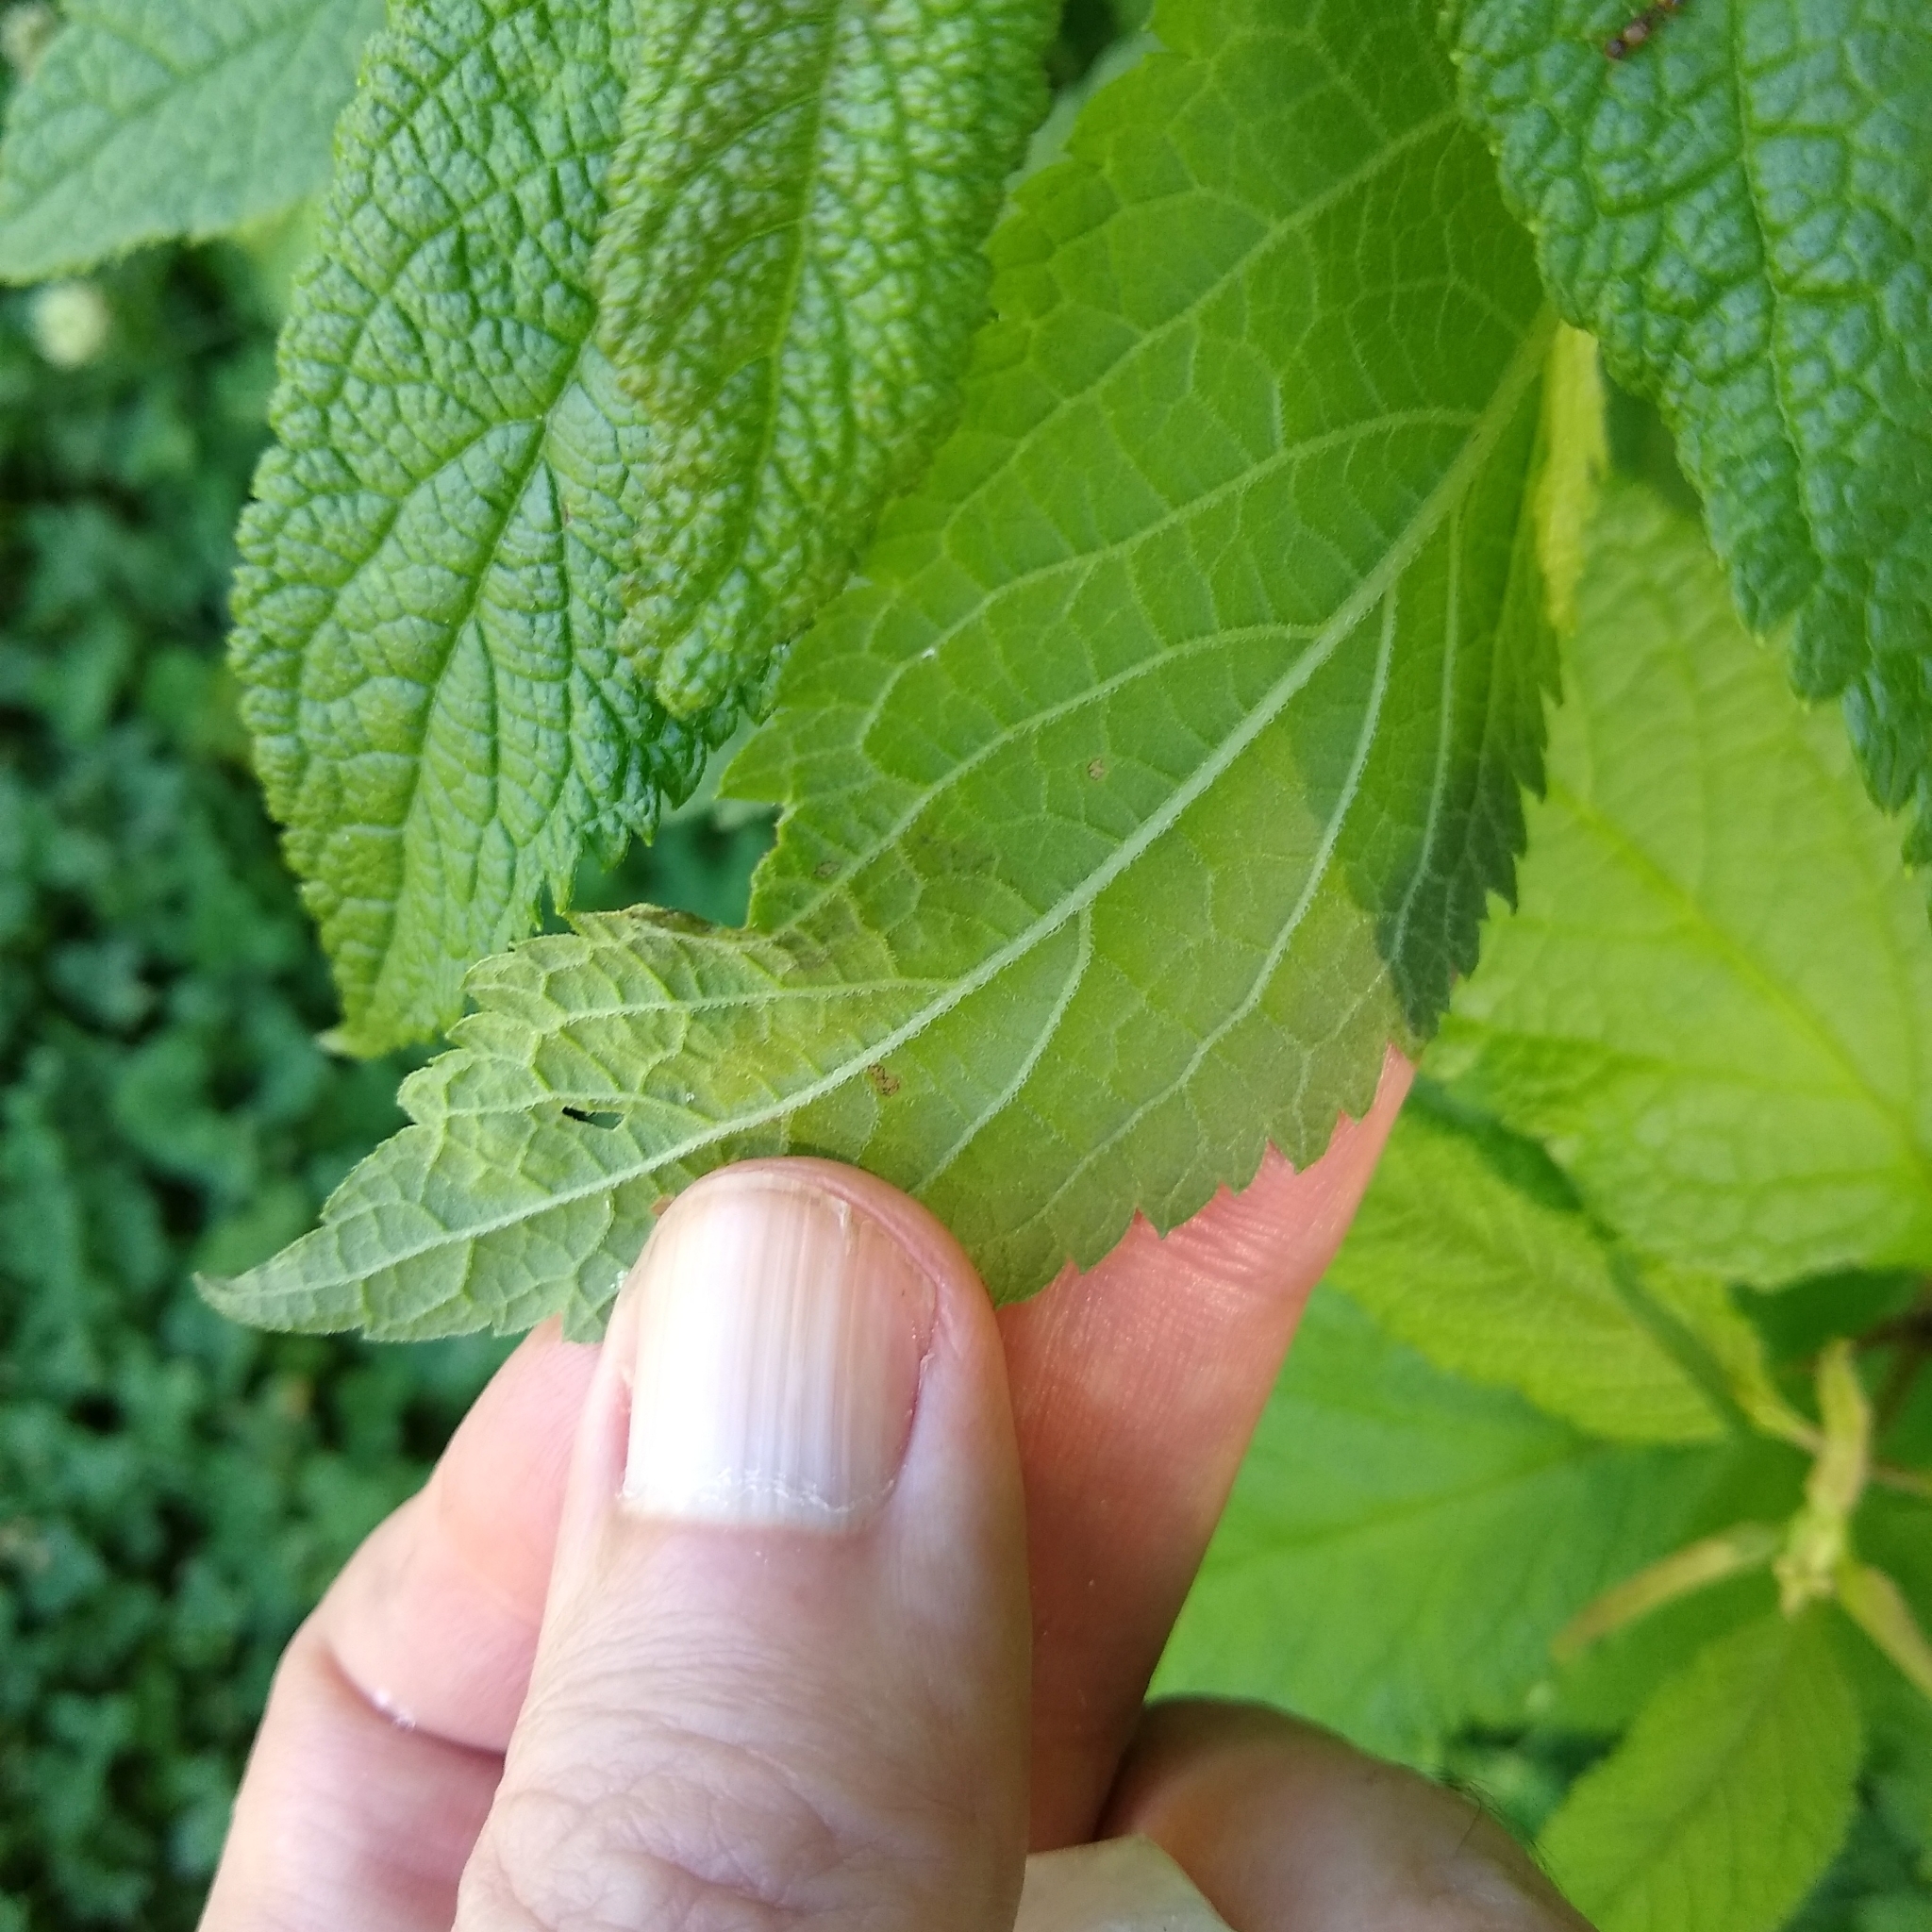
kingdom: Animalia
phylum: Arthropoda
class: Insecta
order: Diptera
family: Agromyzidae
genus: Calycomyza
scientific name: Calycomyza flavinotum
